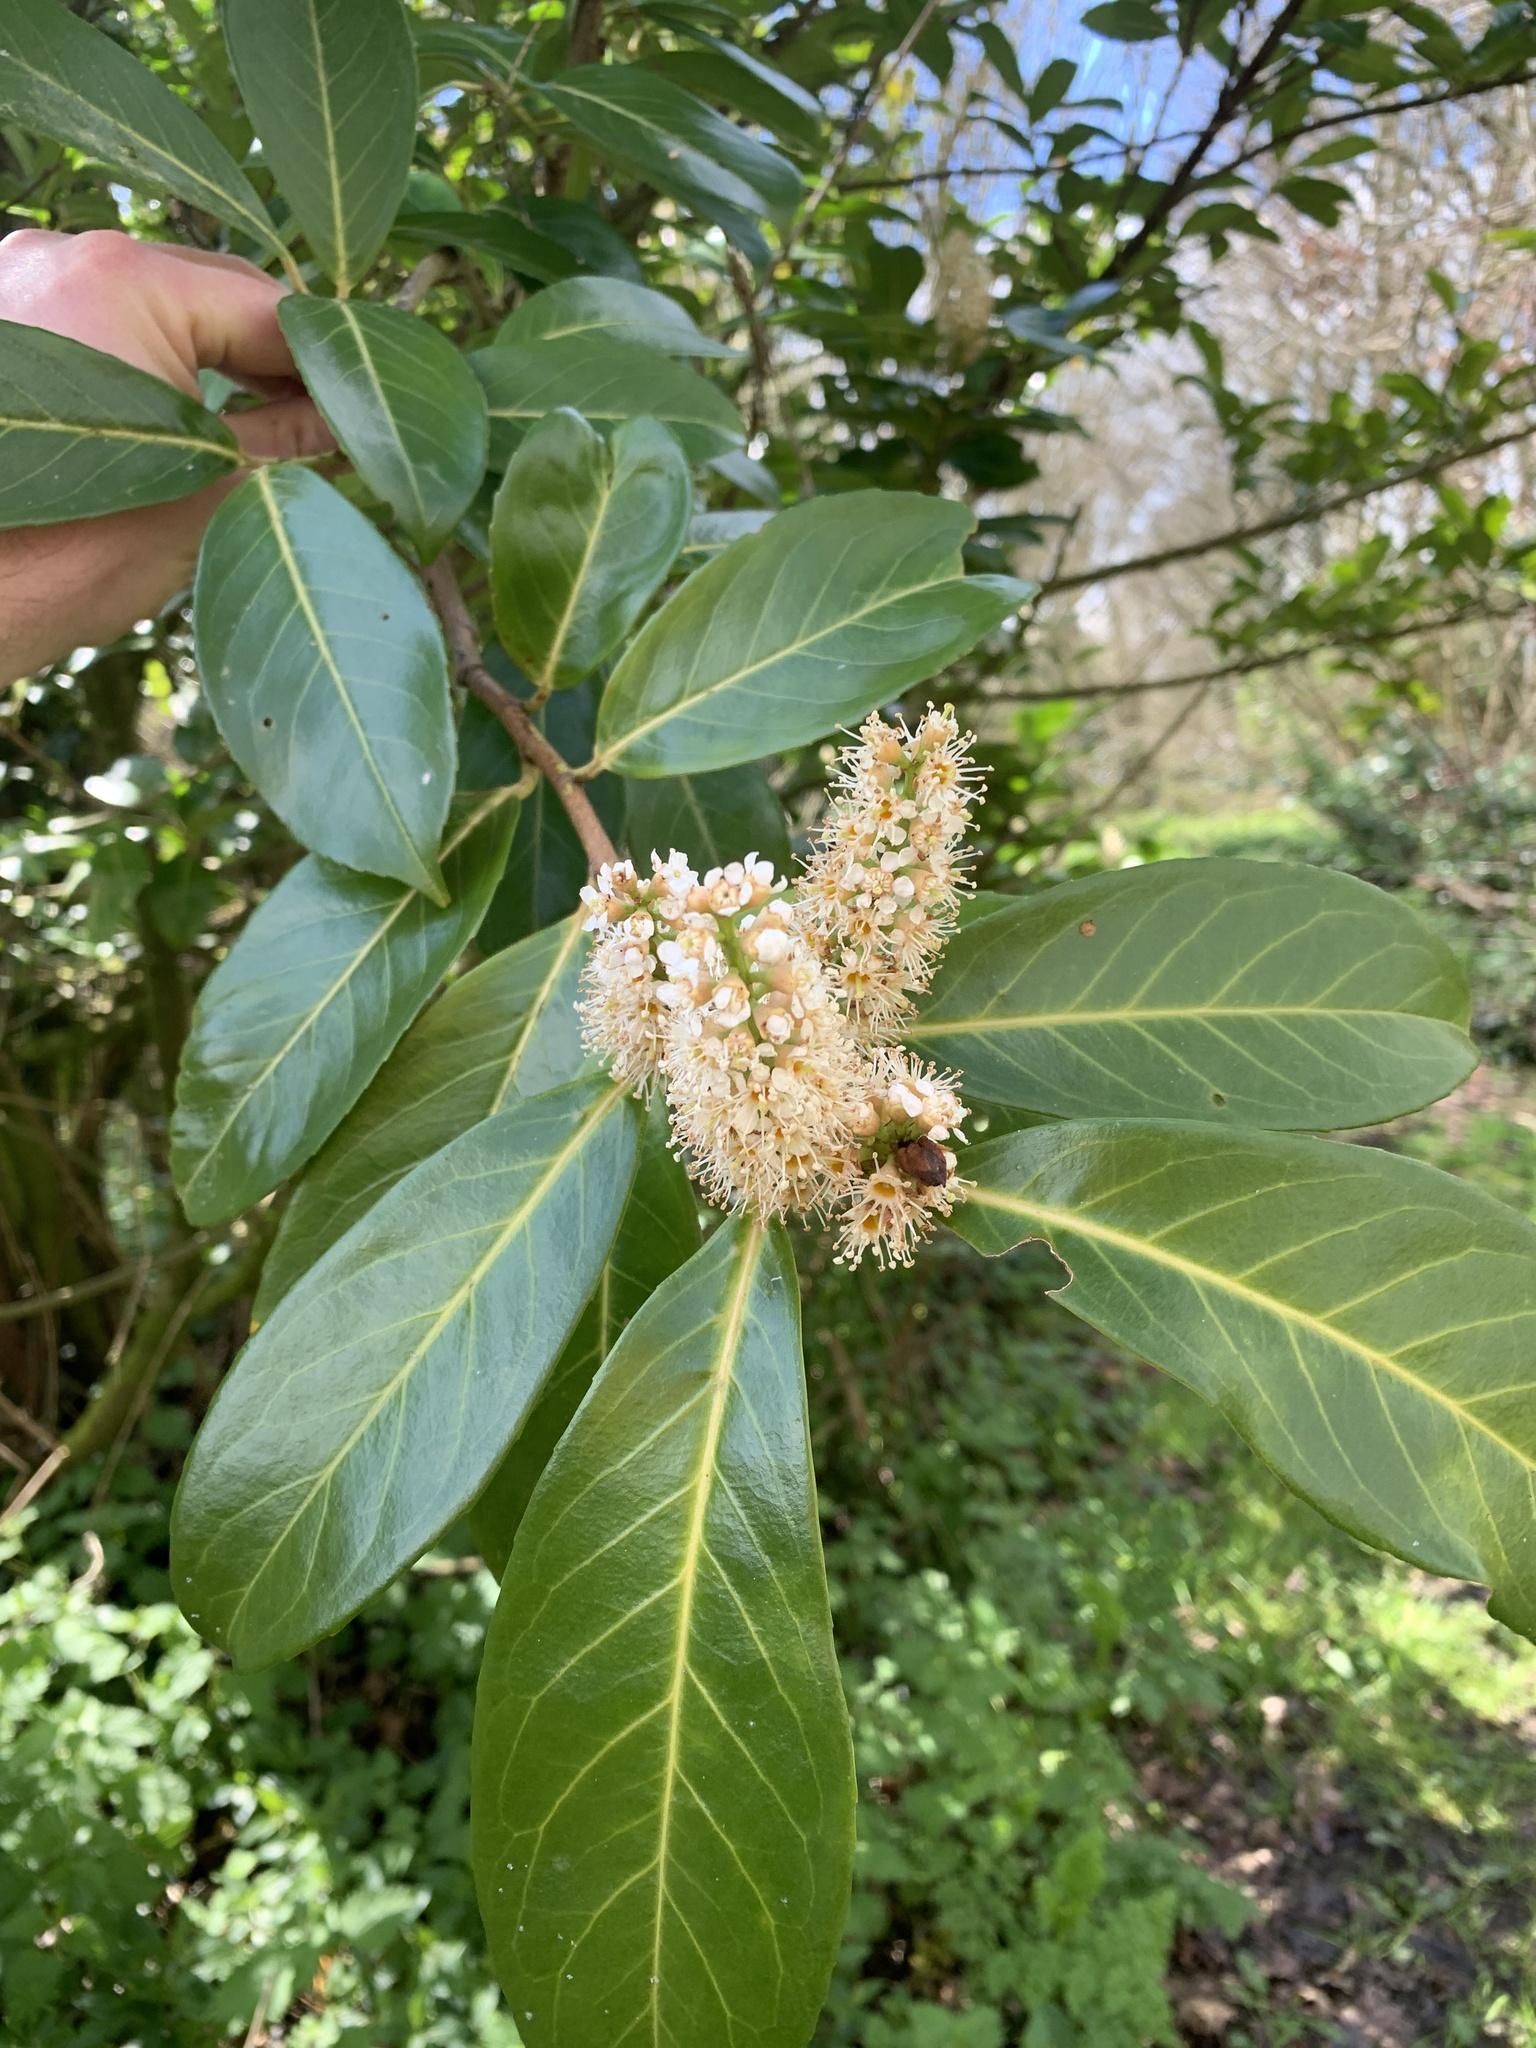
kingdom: Plantae
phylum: Tracheophyta
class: Magnoliopsida
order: Rosales
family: Rosaceae
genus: Prunus
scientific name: Prunus laurocerasus
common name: Cherry laurel
